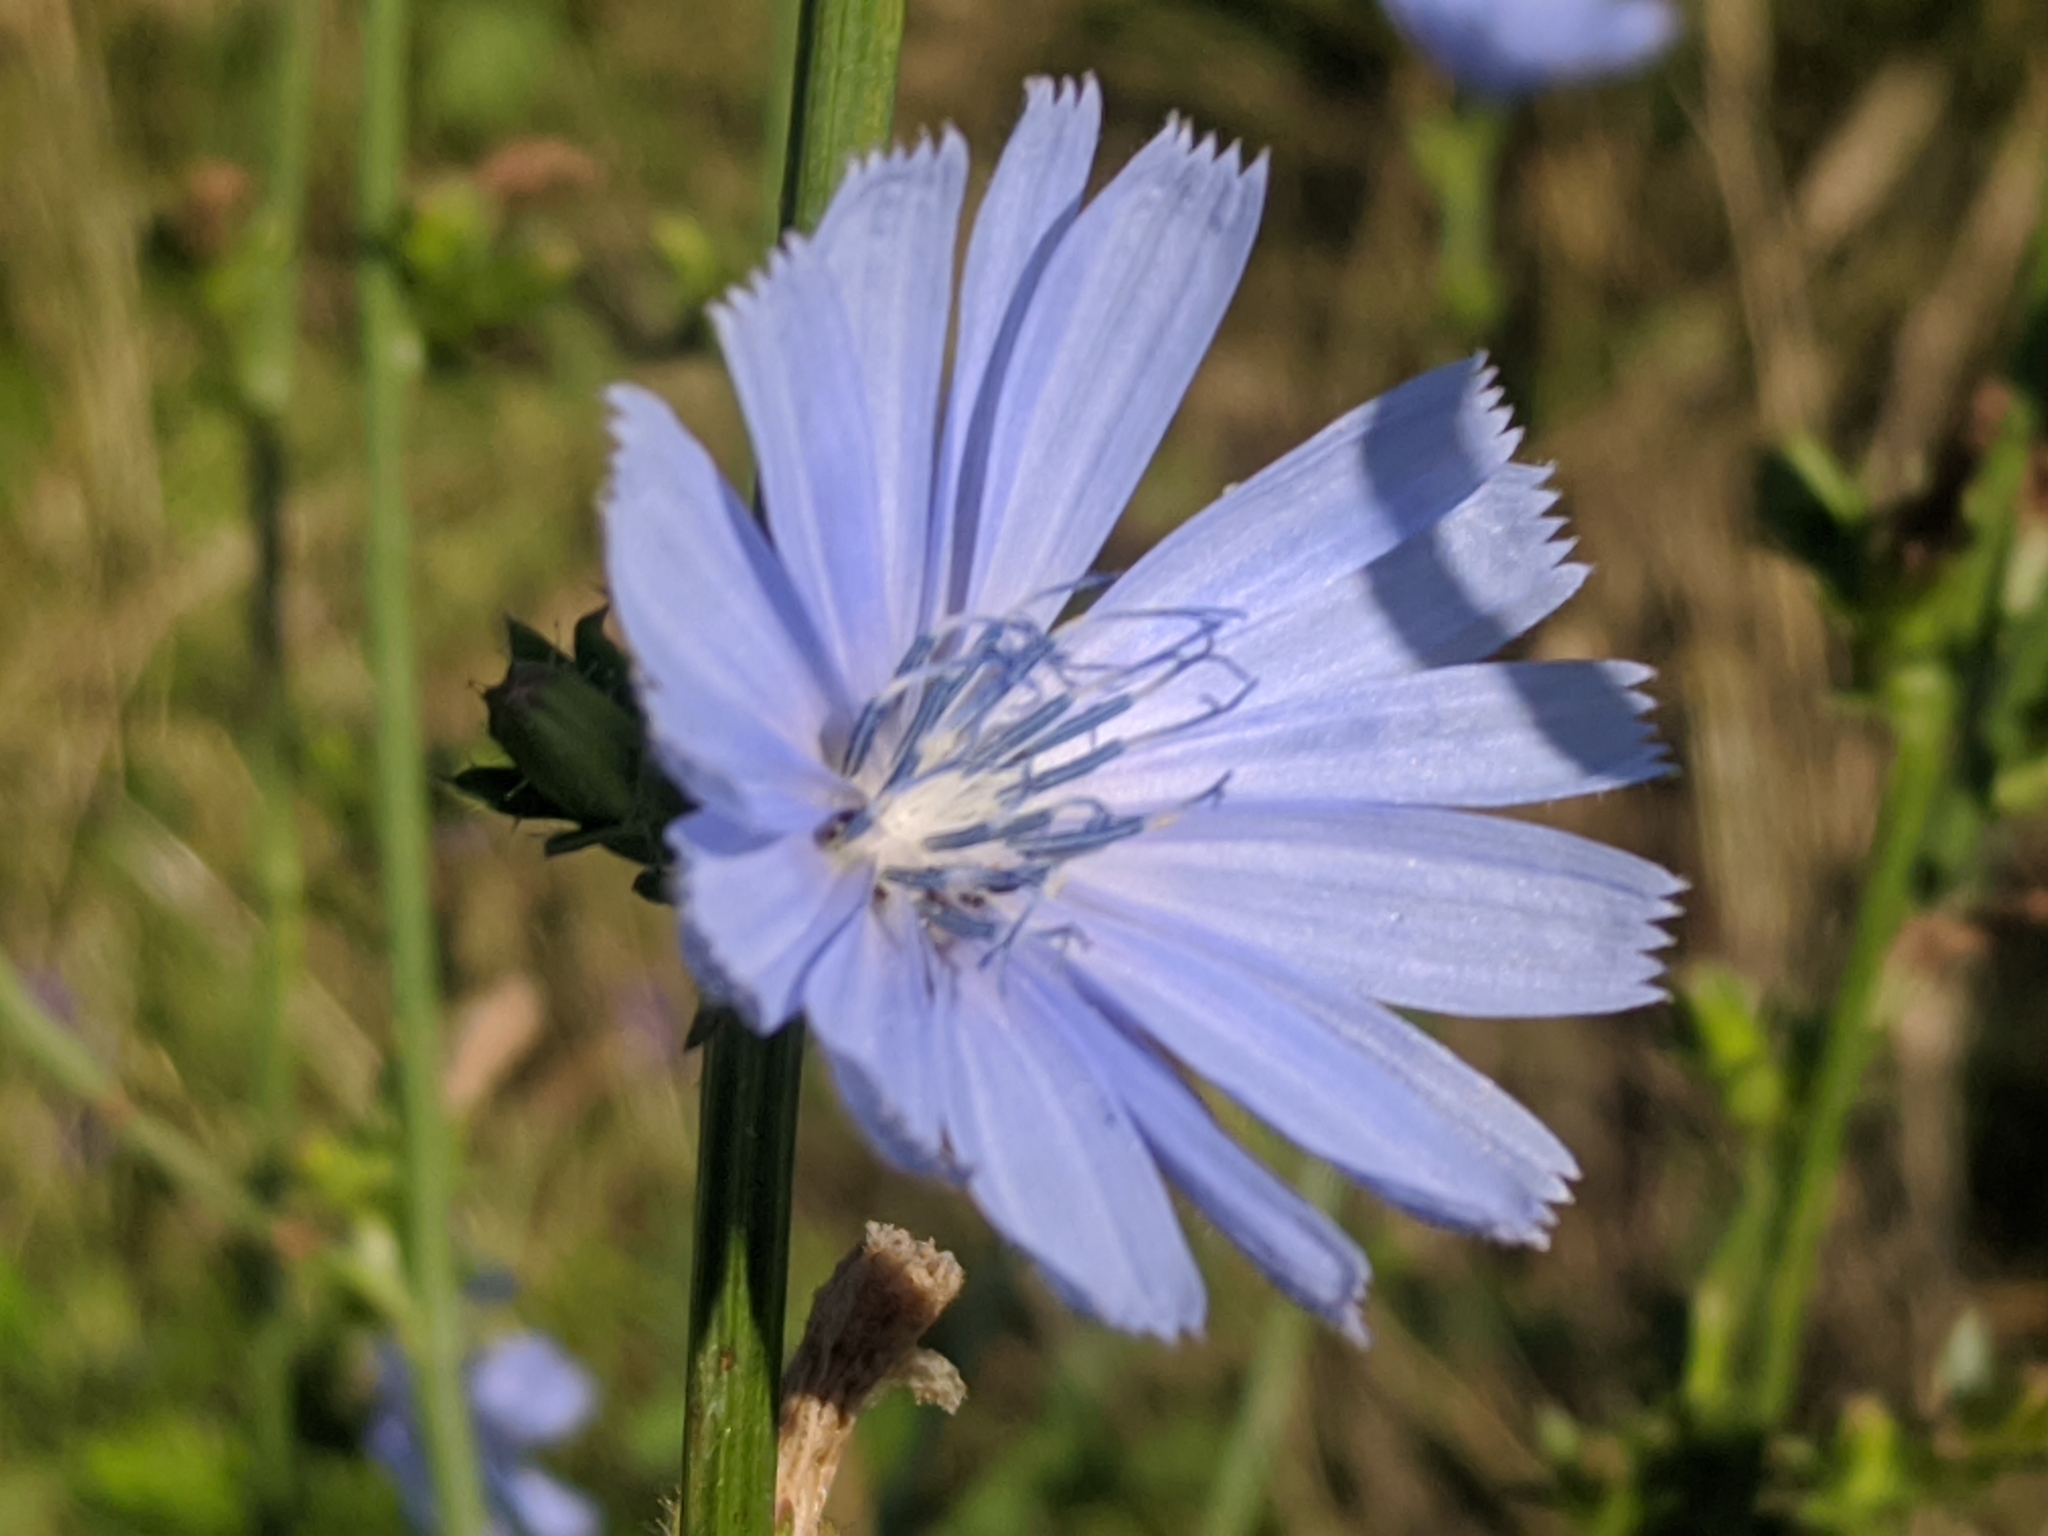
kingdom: Plantae
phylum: Tracheophyta
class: Magnoliopsida
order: Asterales
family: Asteraceae
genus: Cichorium
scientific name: Cichorium intybus
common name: Chicory
